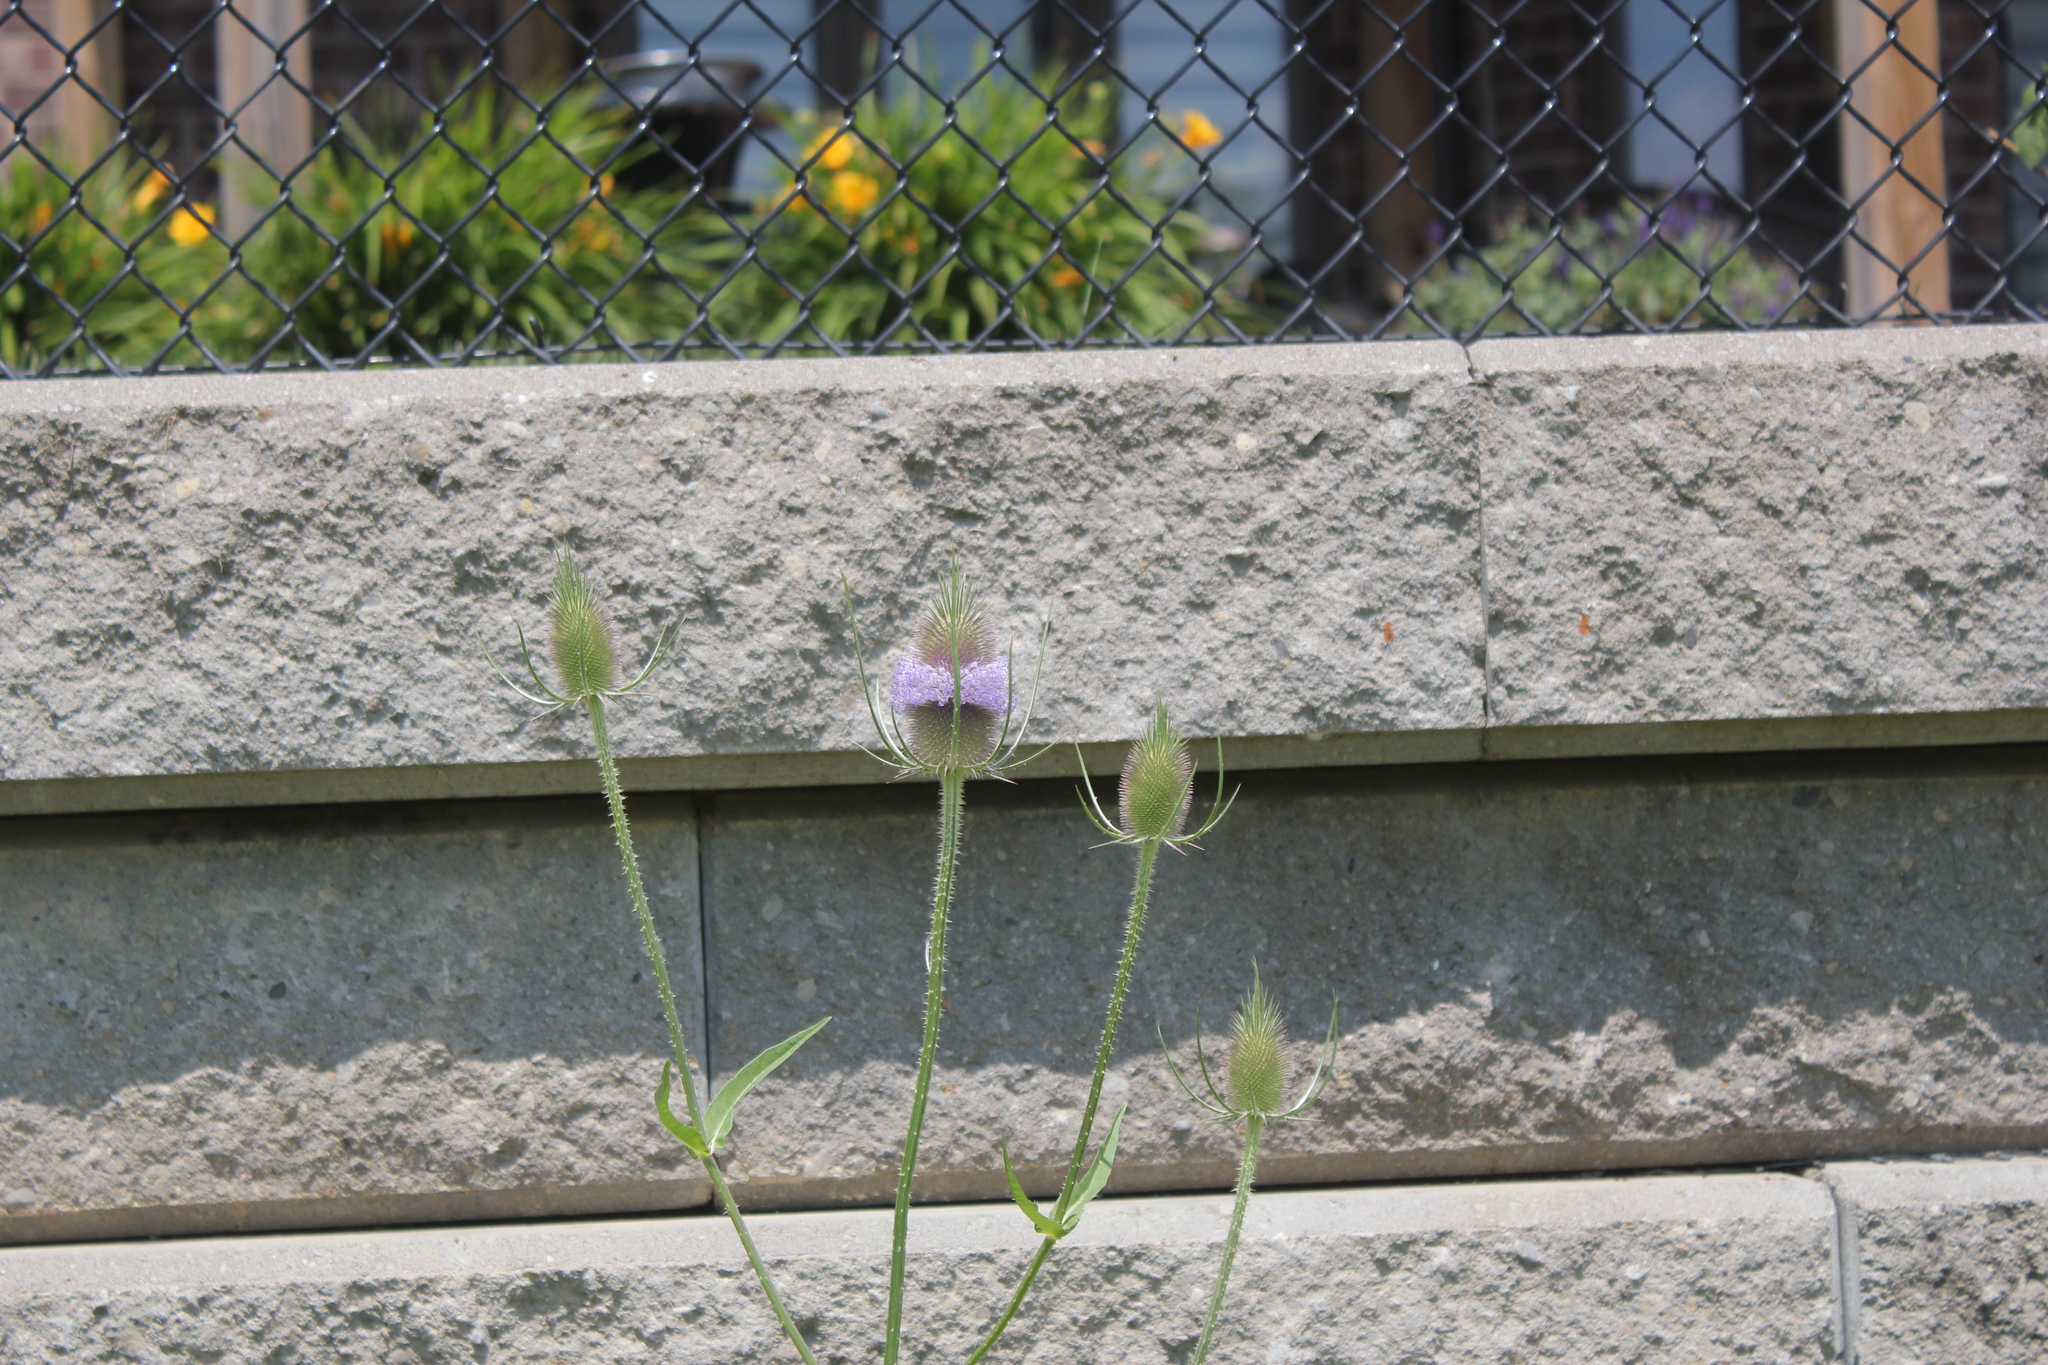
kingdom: Plantae
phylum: Tracheophyta
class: Magnoliopsida
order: Dipsacales
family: Caprifoliaceae
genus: Dipsacus
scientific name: Dipsacus fullonum
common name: Teasel
